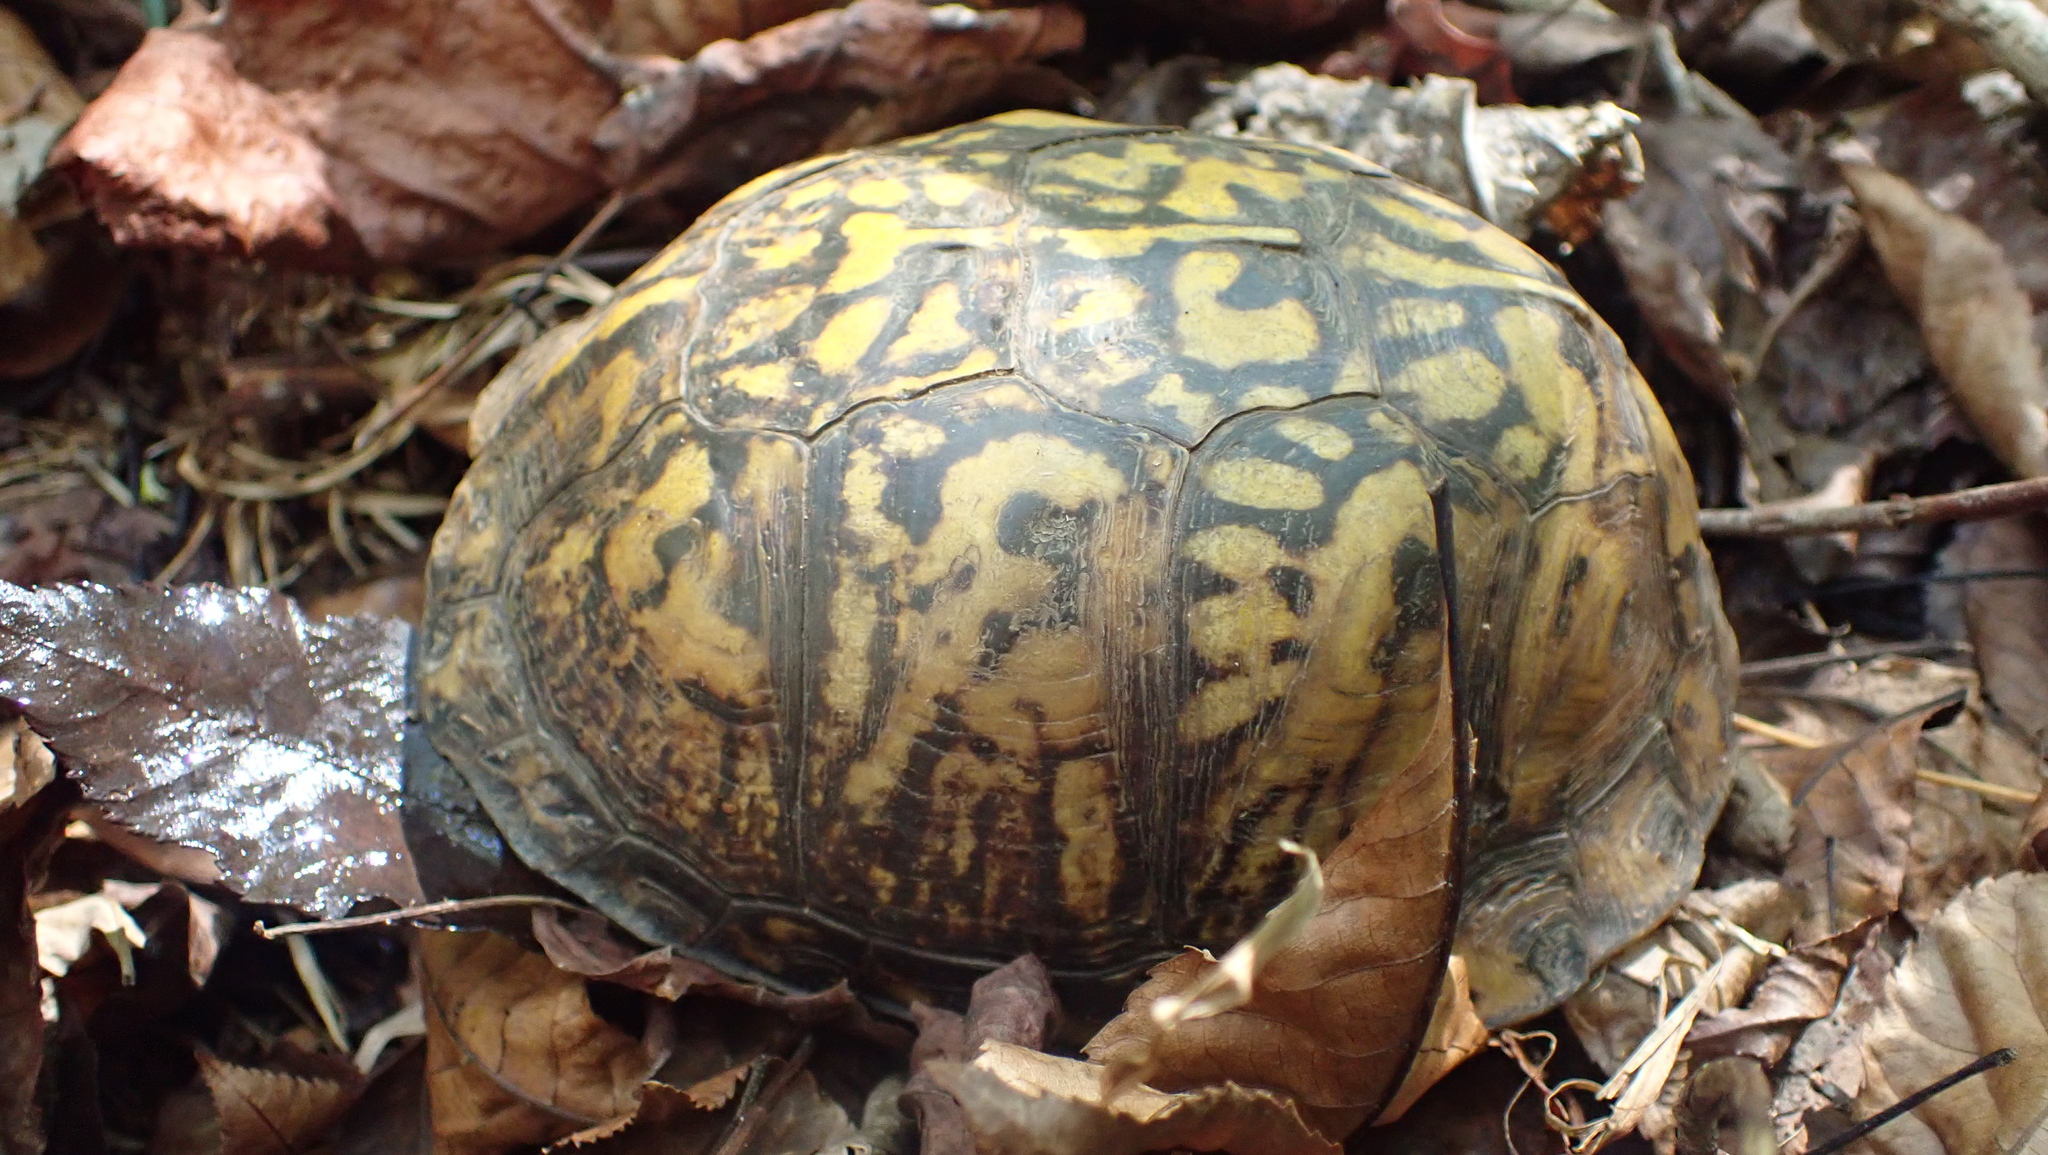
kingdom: Animalia
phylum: Chordata
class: Testudines
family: Emydidae
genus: Terrapene
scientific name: Terrapene carolina
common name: Common box turtle
